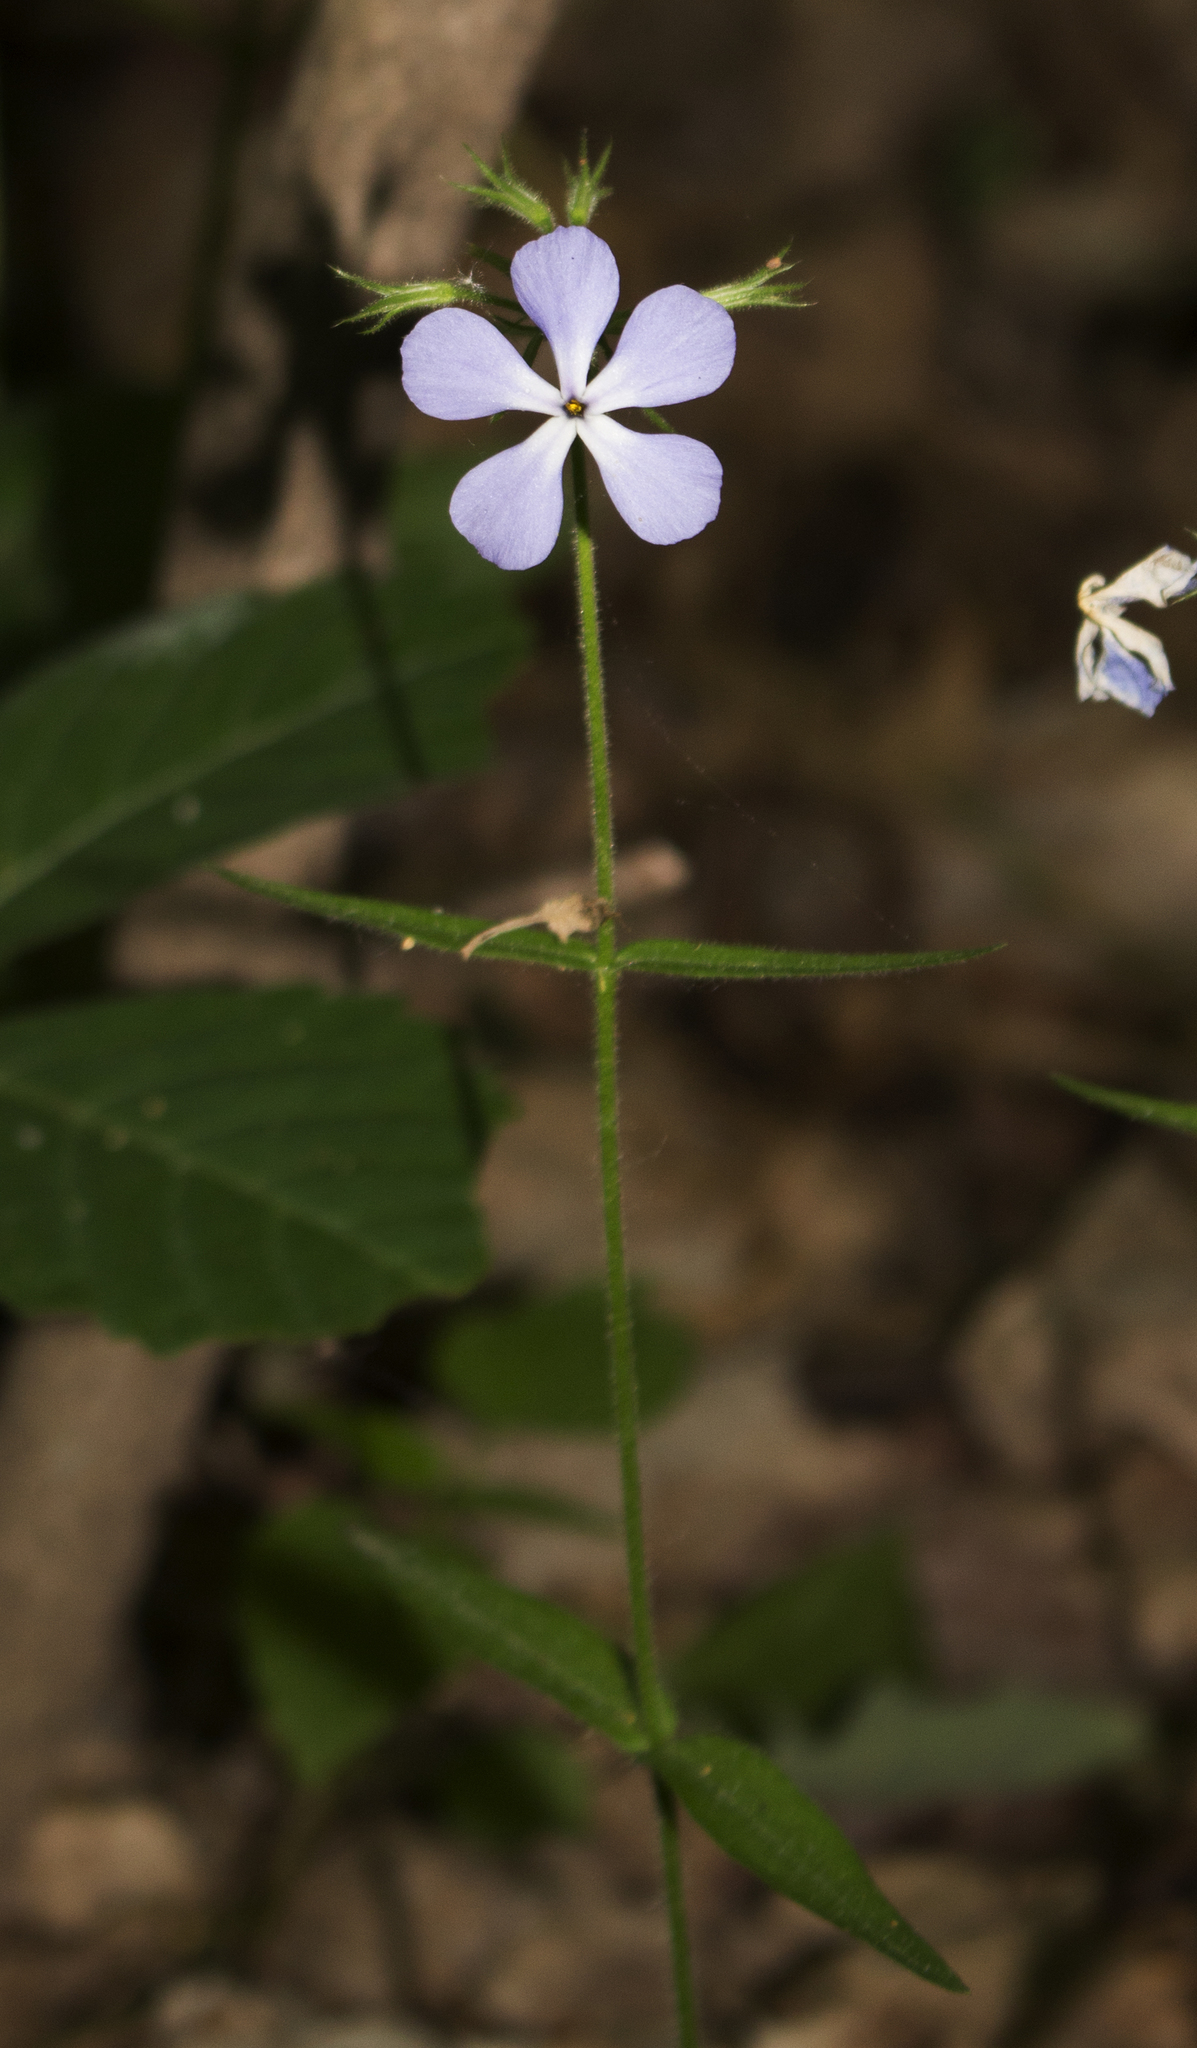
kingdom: Plantae
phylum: Tracheophyta
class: Magnoliopsida
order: Ericales
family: Polemoniaceae
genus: Phlox
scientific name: Phlox divaricata
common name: Blue phlox
